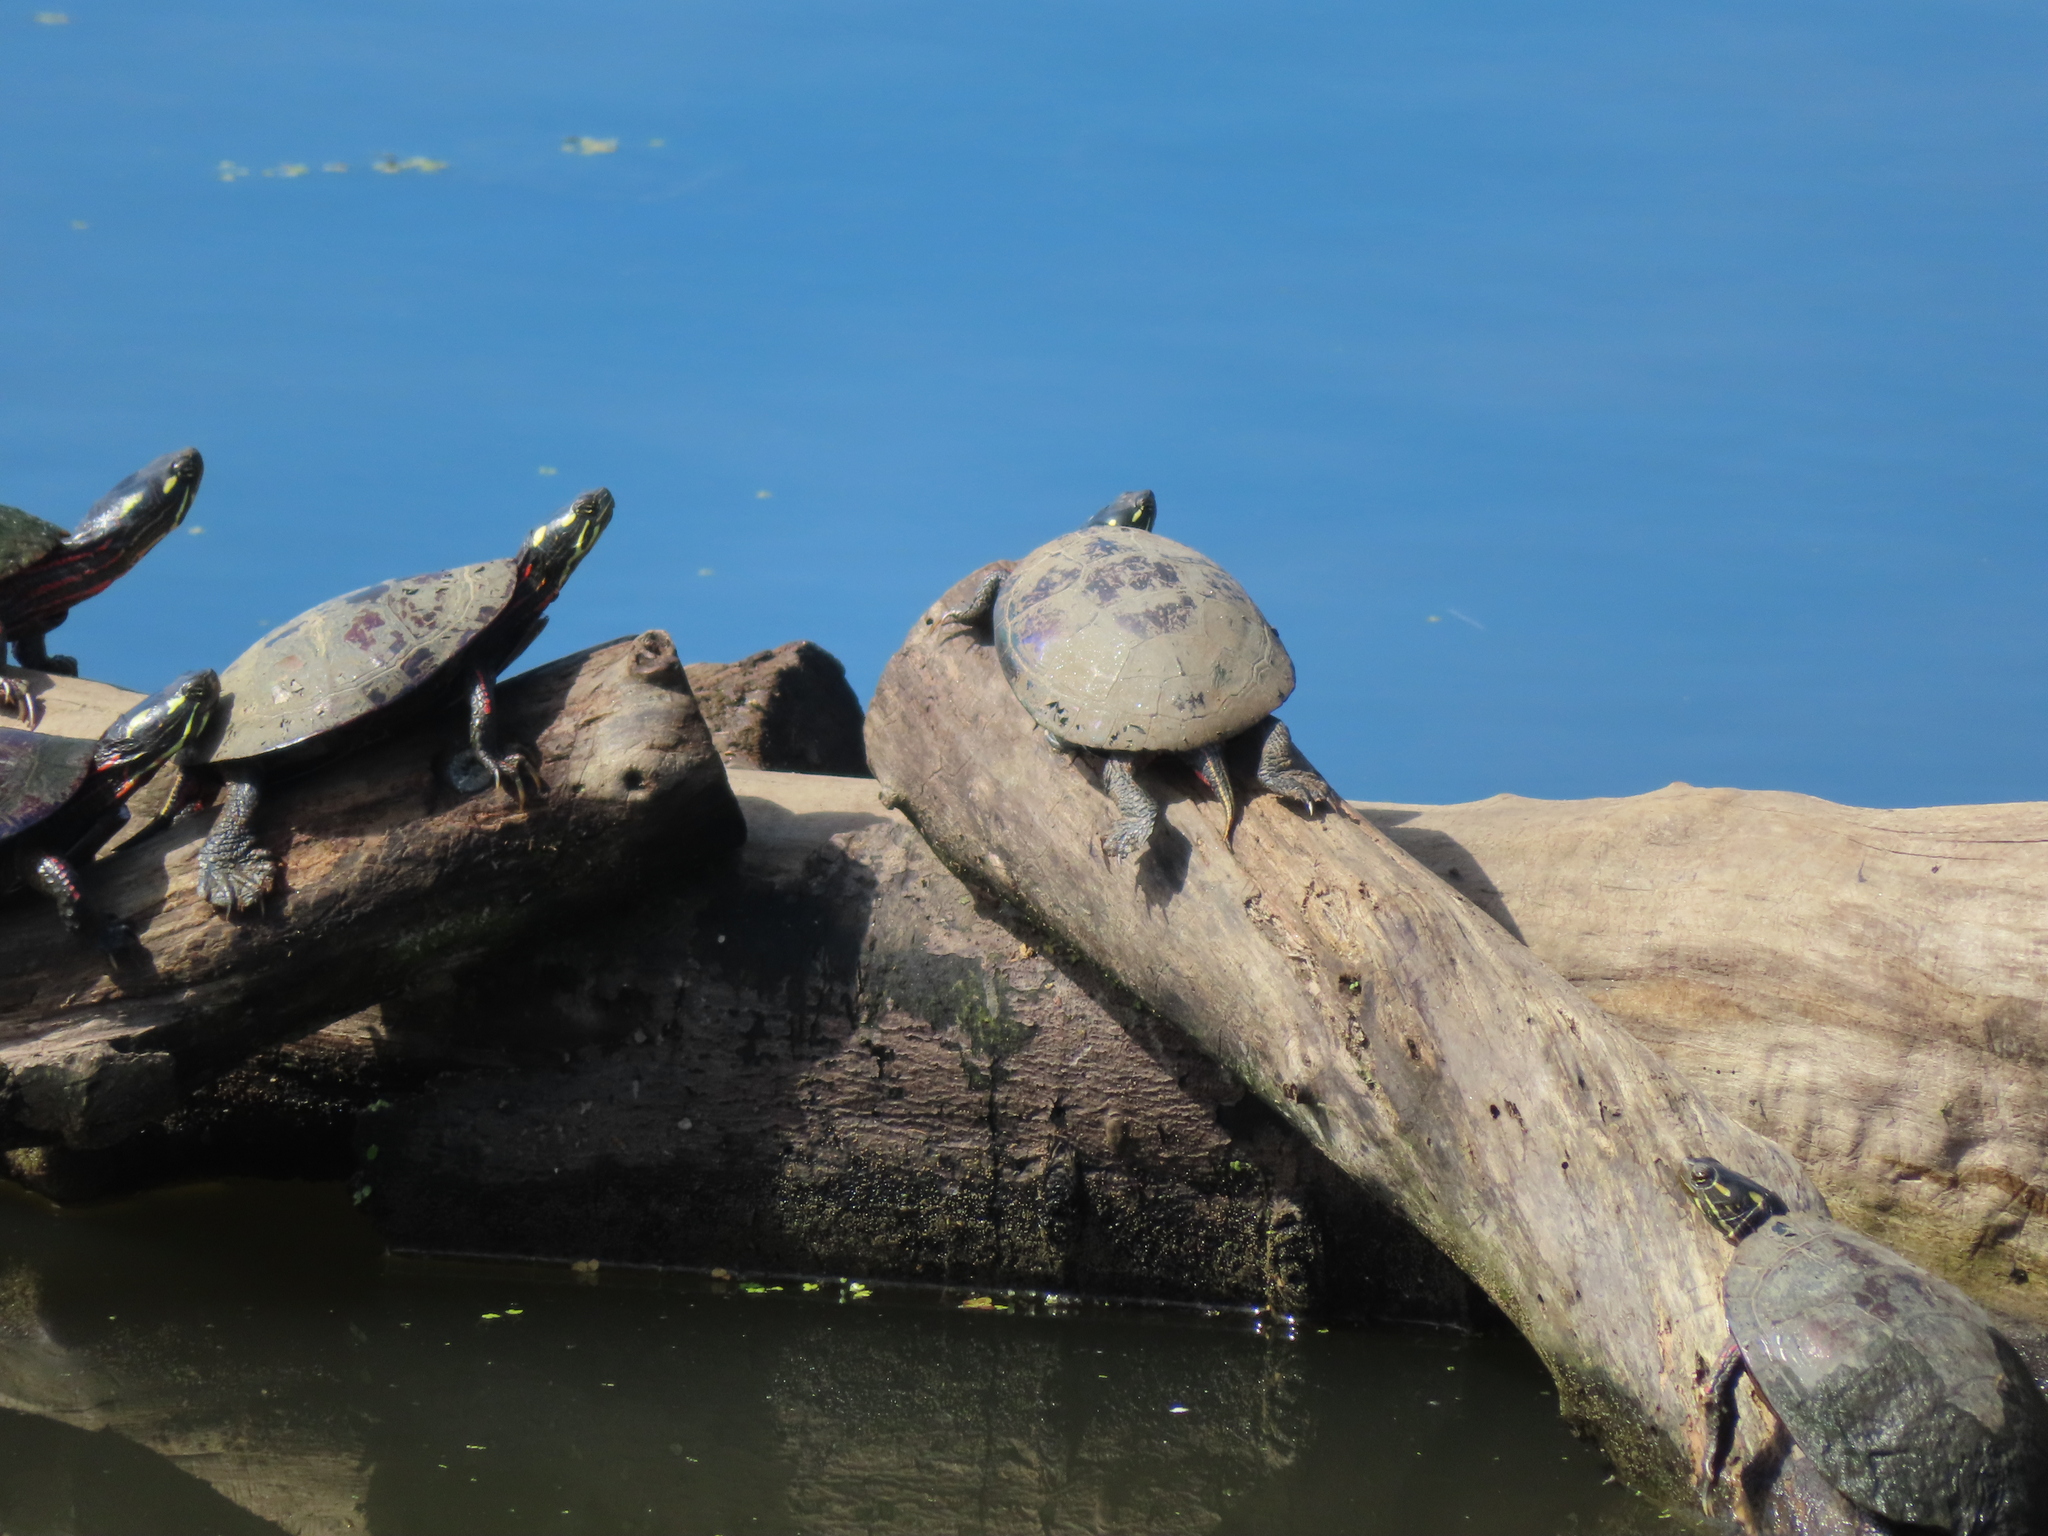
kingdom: Animalia
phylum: Chordata
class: Testudines
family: Emydidae
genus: Chrysemys
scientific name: Chrysemys picta
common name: Painted turtle
